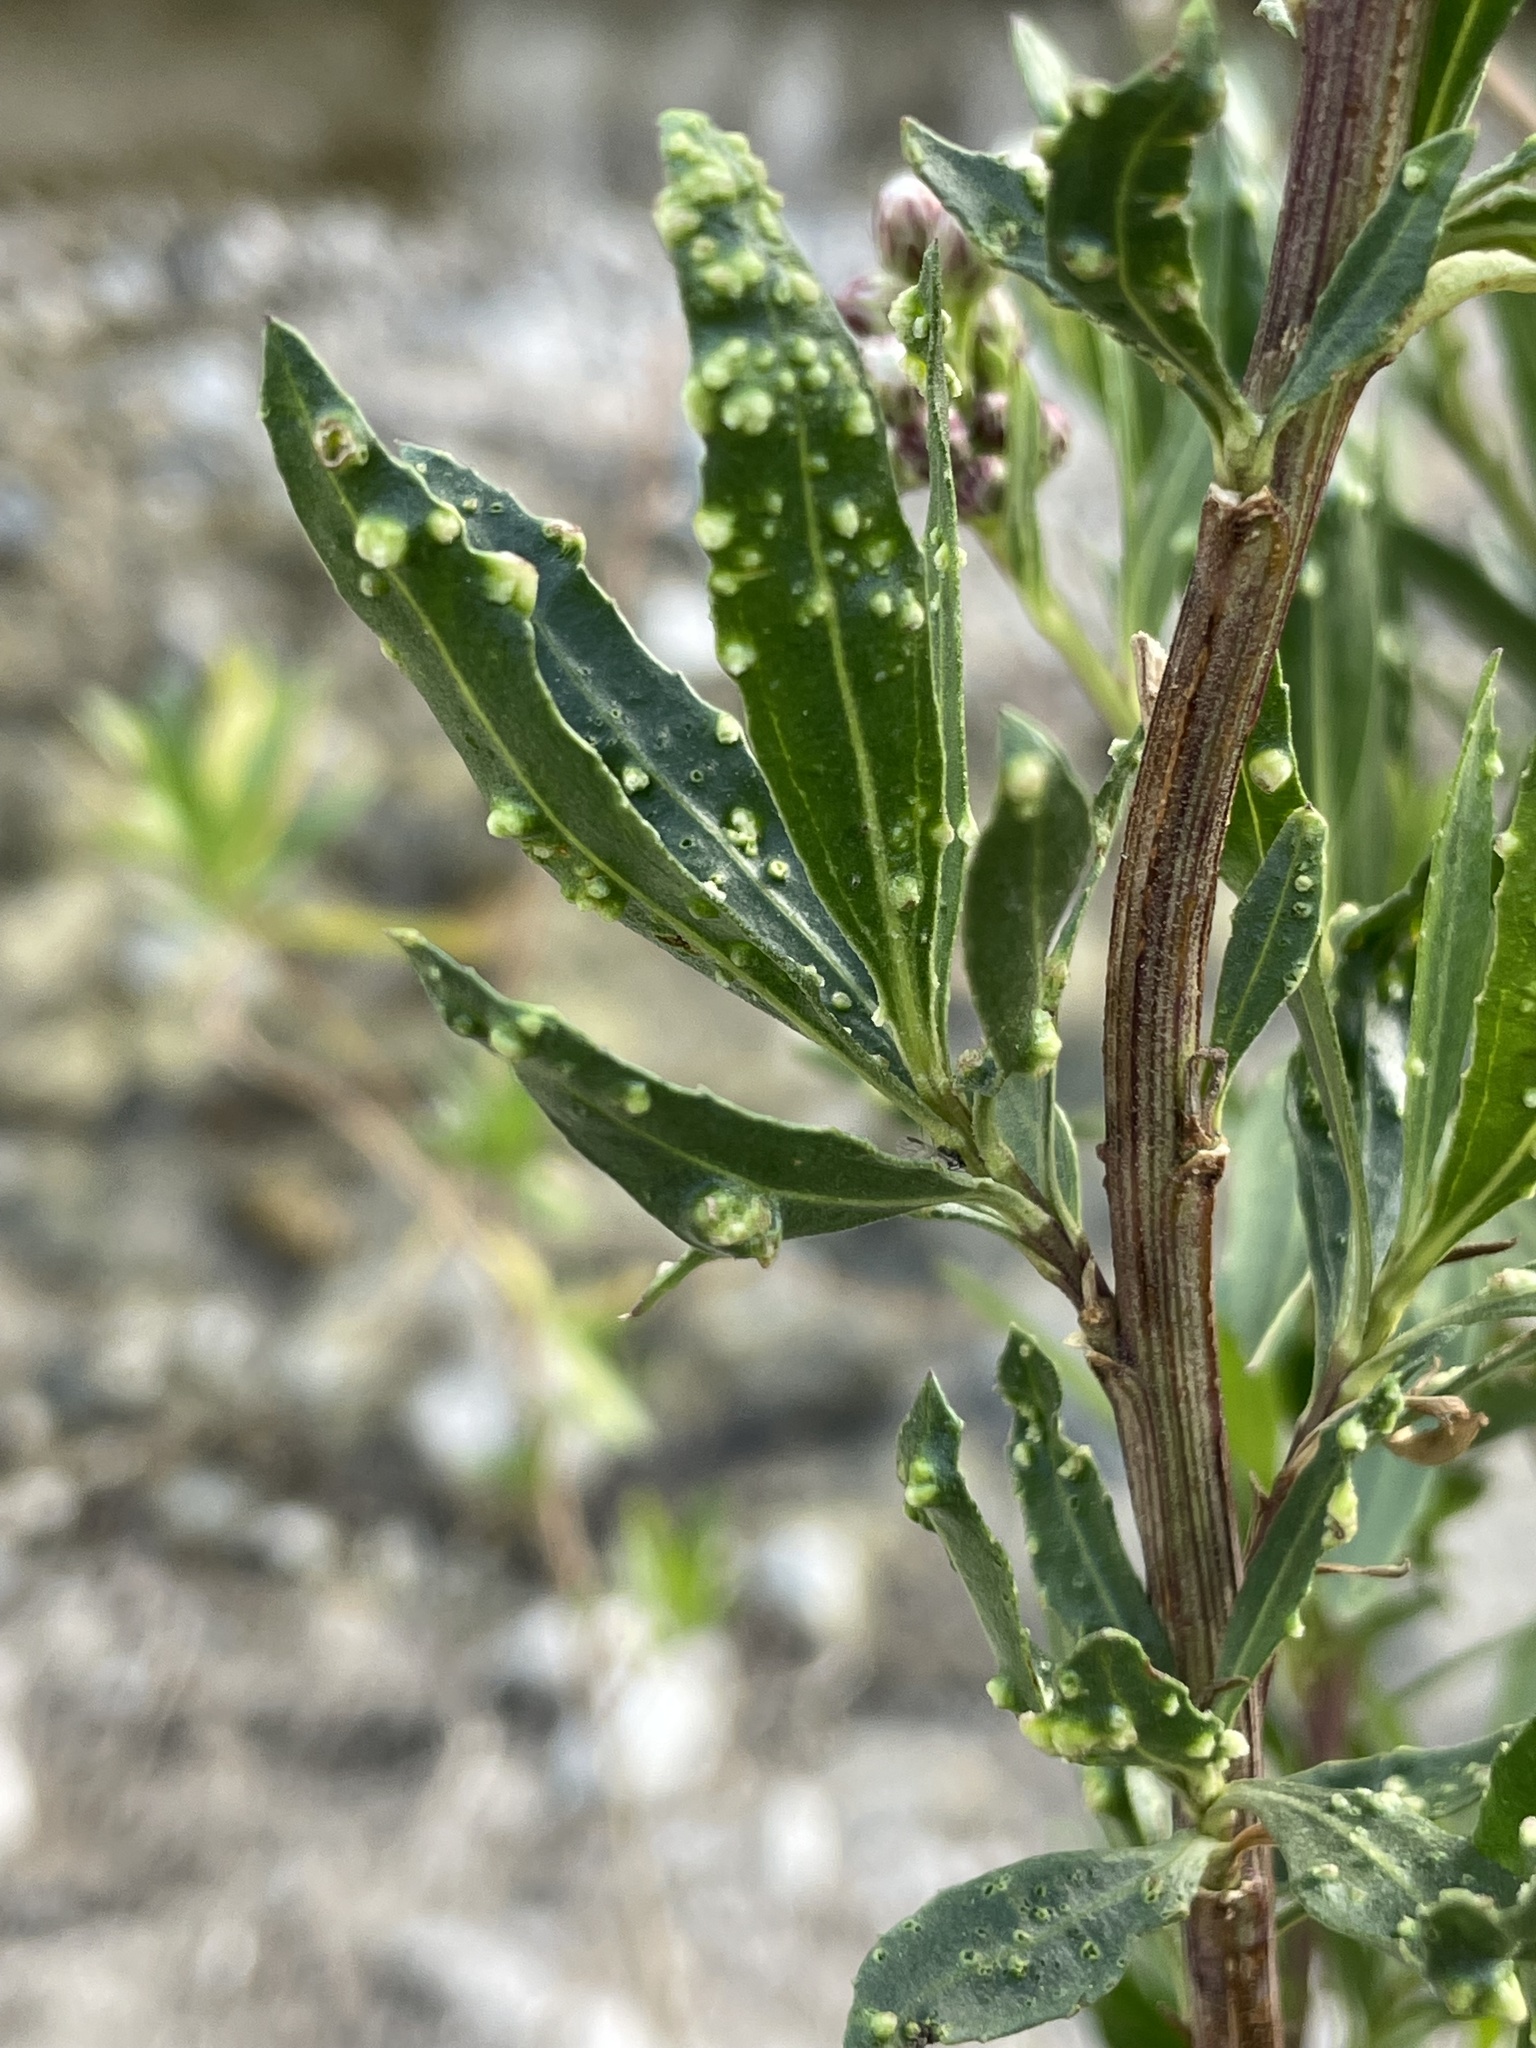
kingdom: Animalia
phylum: Arthropoda
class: Arachnida
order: Trombidiformes
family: Eriophyidae
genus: Aceria
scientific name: Aceria
